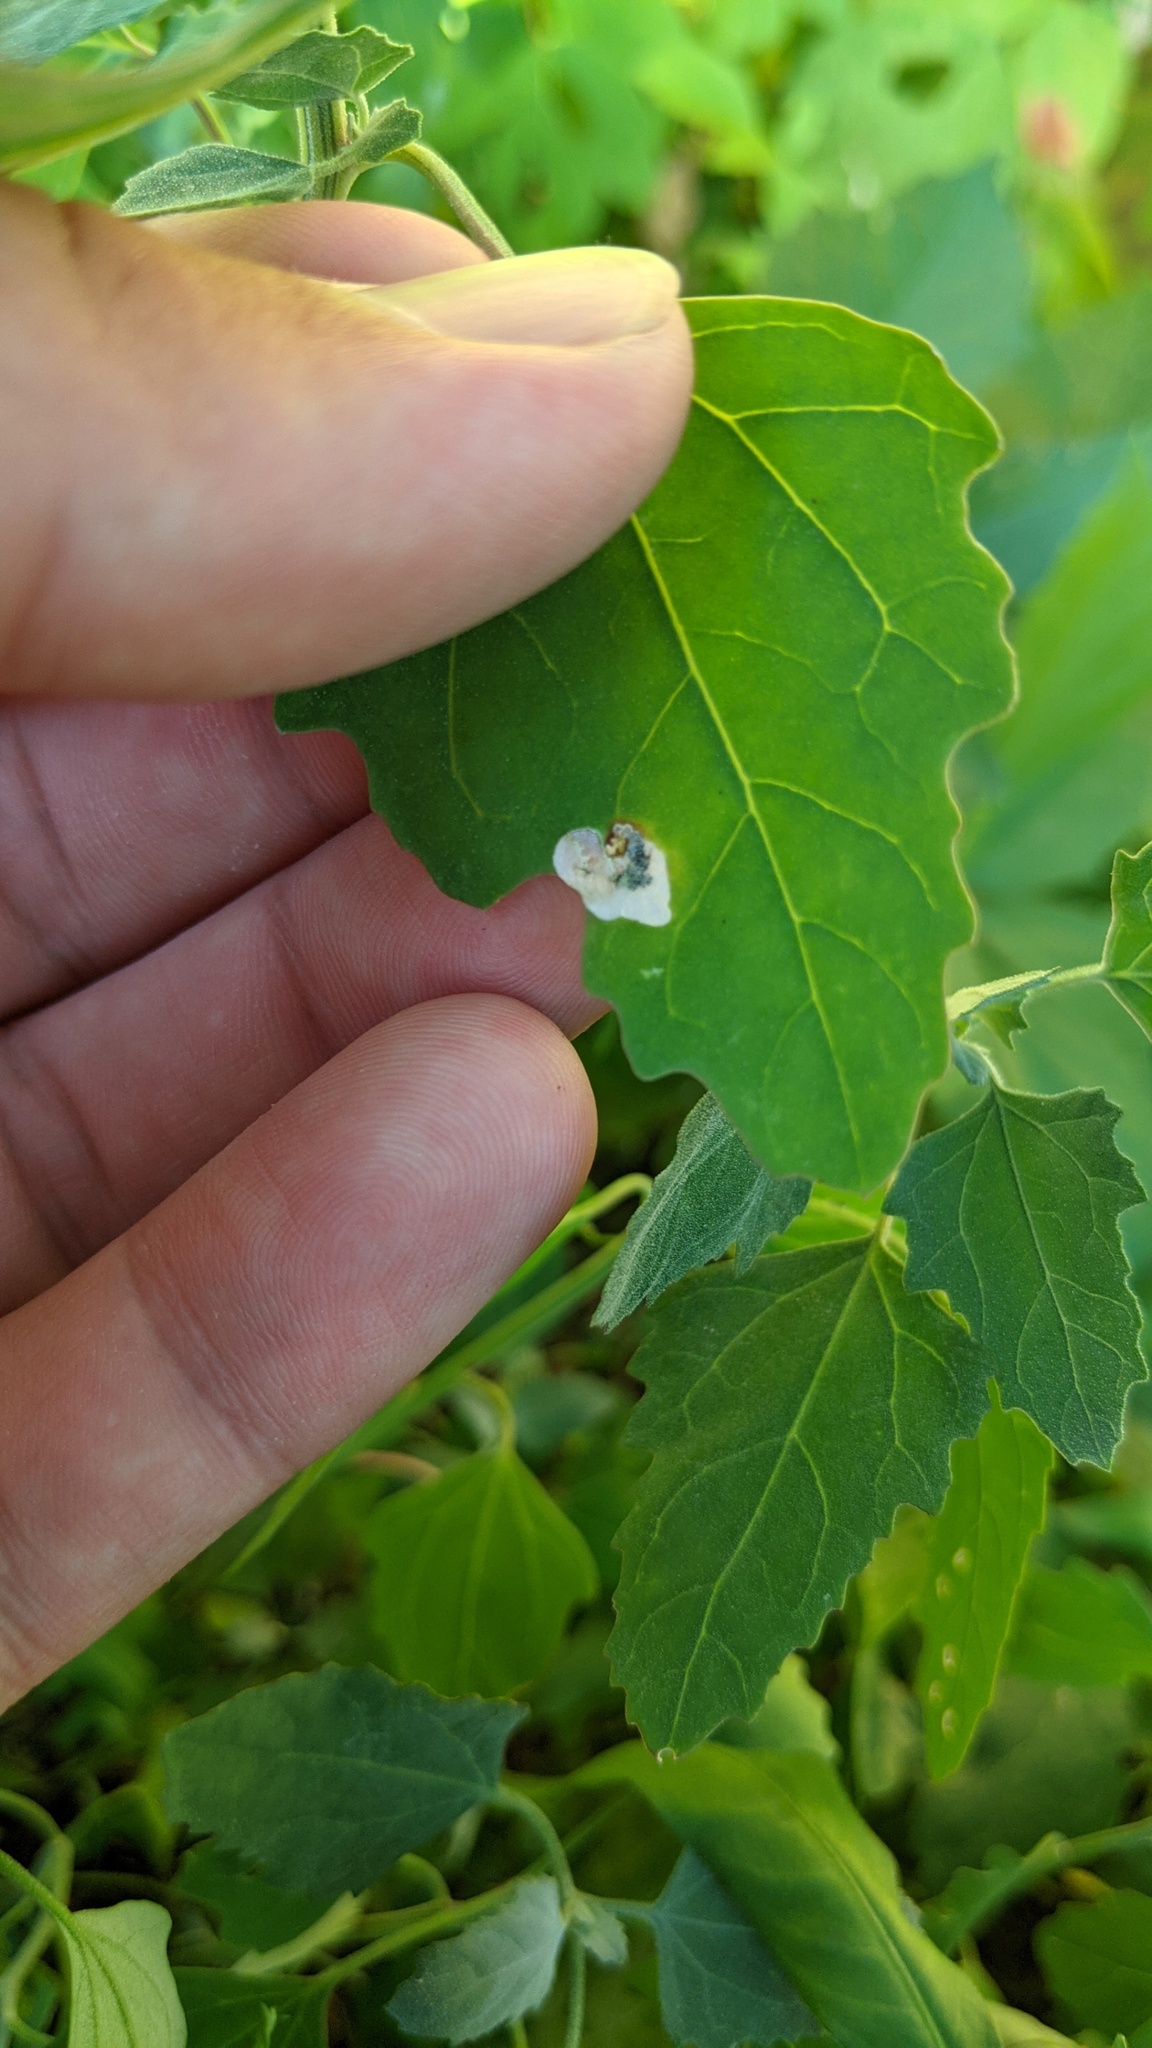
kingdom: Animalia
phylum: Arthropoda
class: Insecta
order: Lepidoptera
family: Gelechiidae
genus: Chrysoesthia
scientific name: Chrysoesthia sexguttella
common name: Moth
